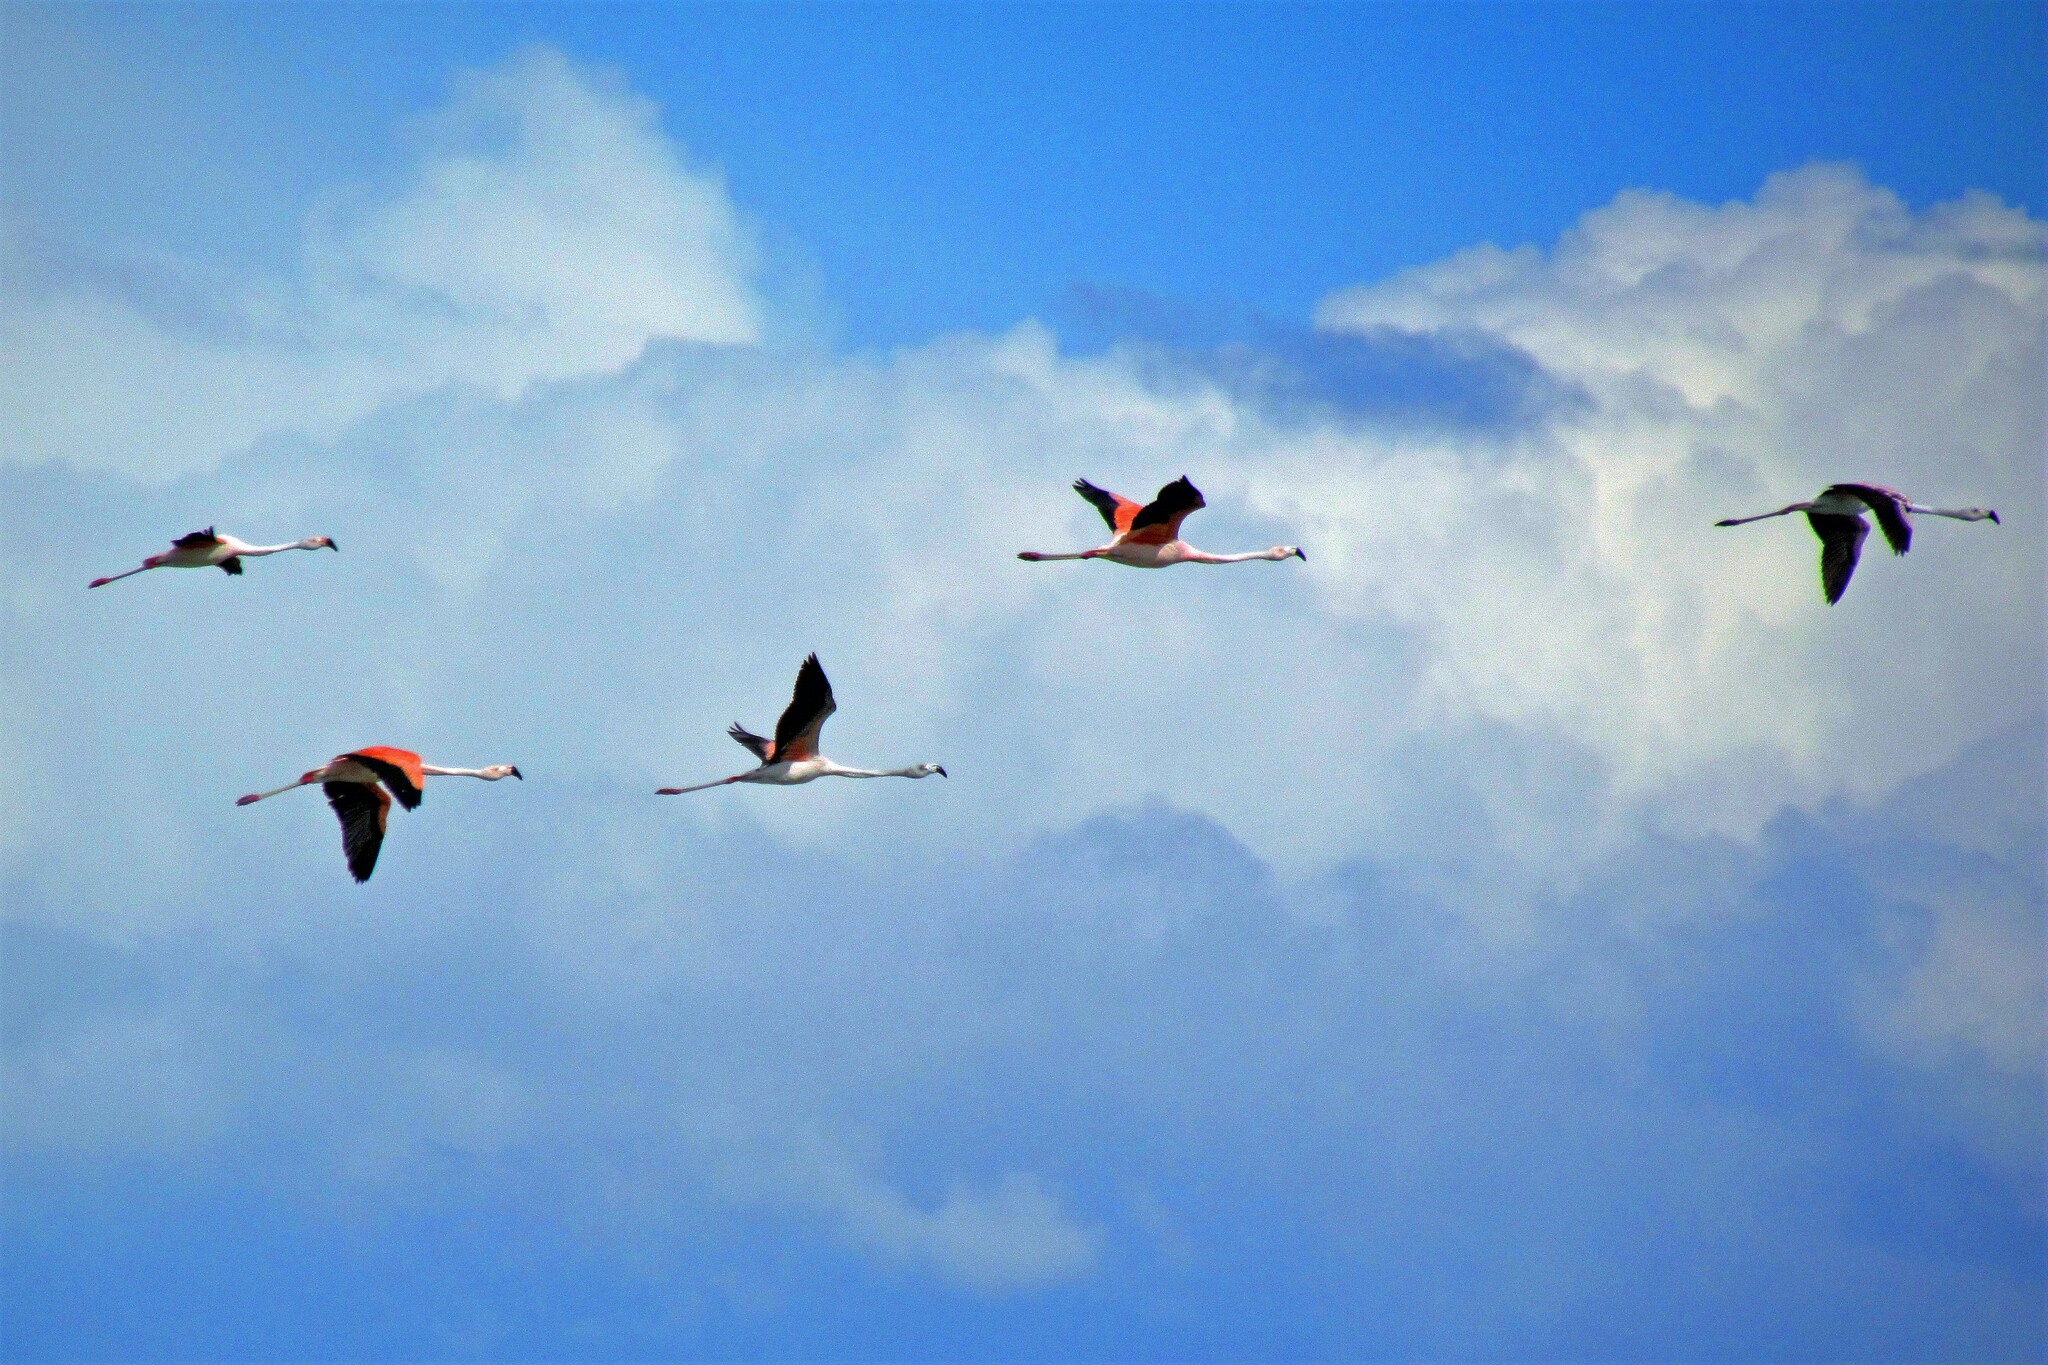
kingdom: Animalia
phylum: Chordata
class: Aves
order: Phoenicopteriformes
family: Phoenicopteridae
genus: Phoenicopterus
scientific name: Phoenicopterus chilensis
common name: Chilean flamingo
